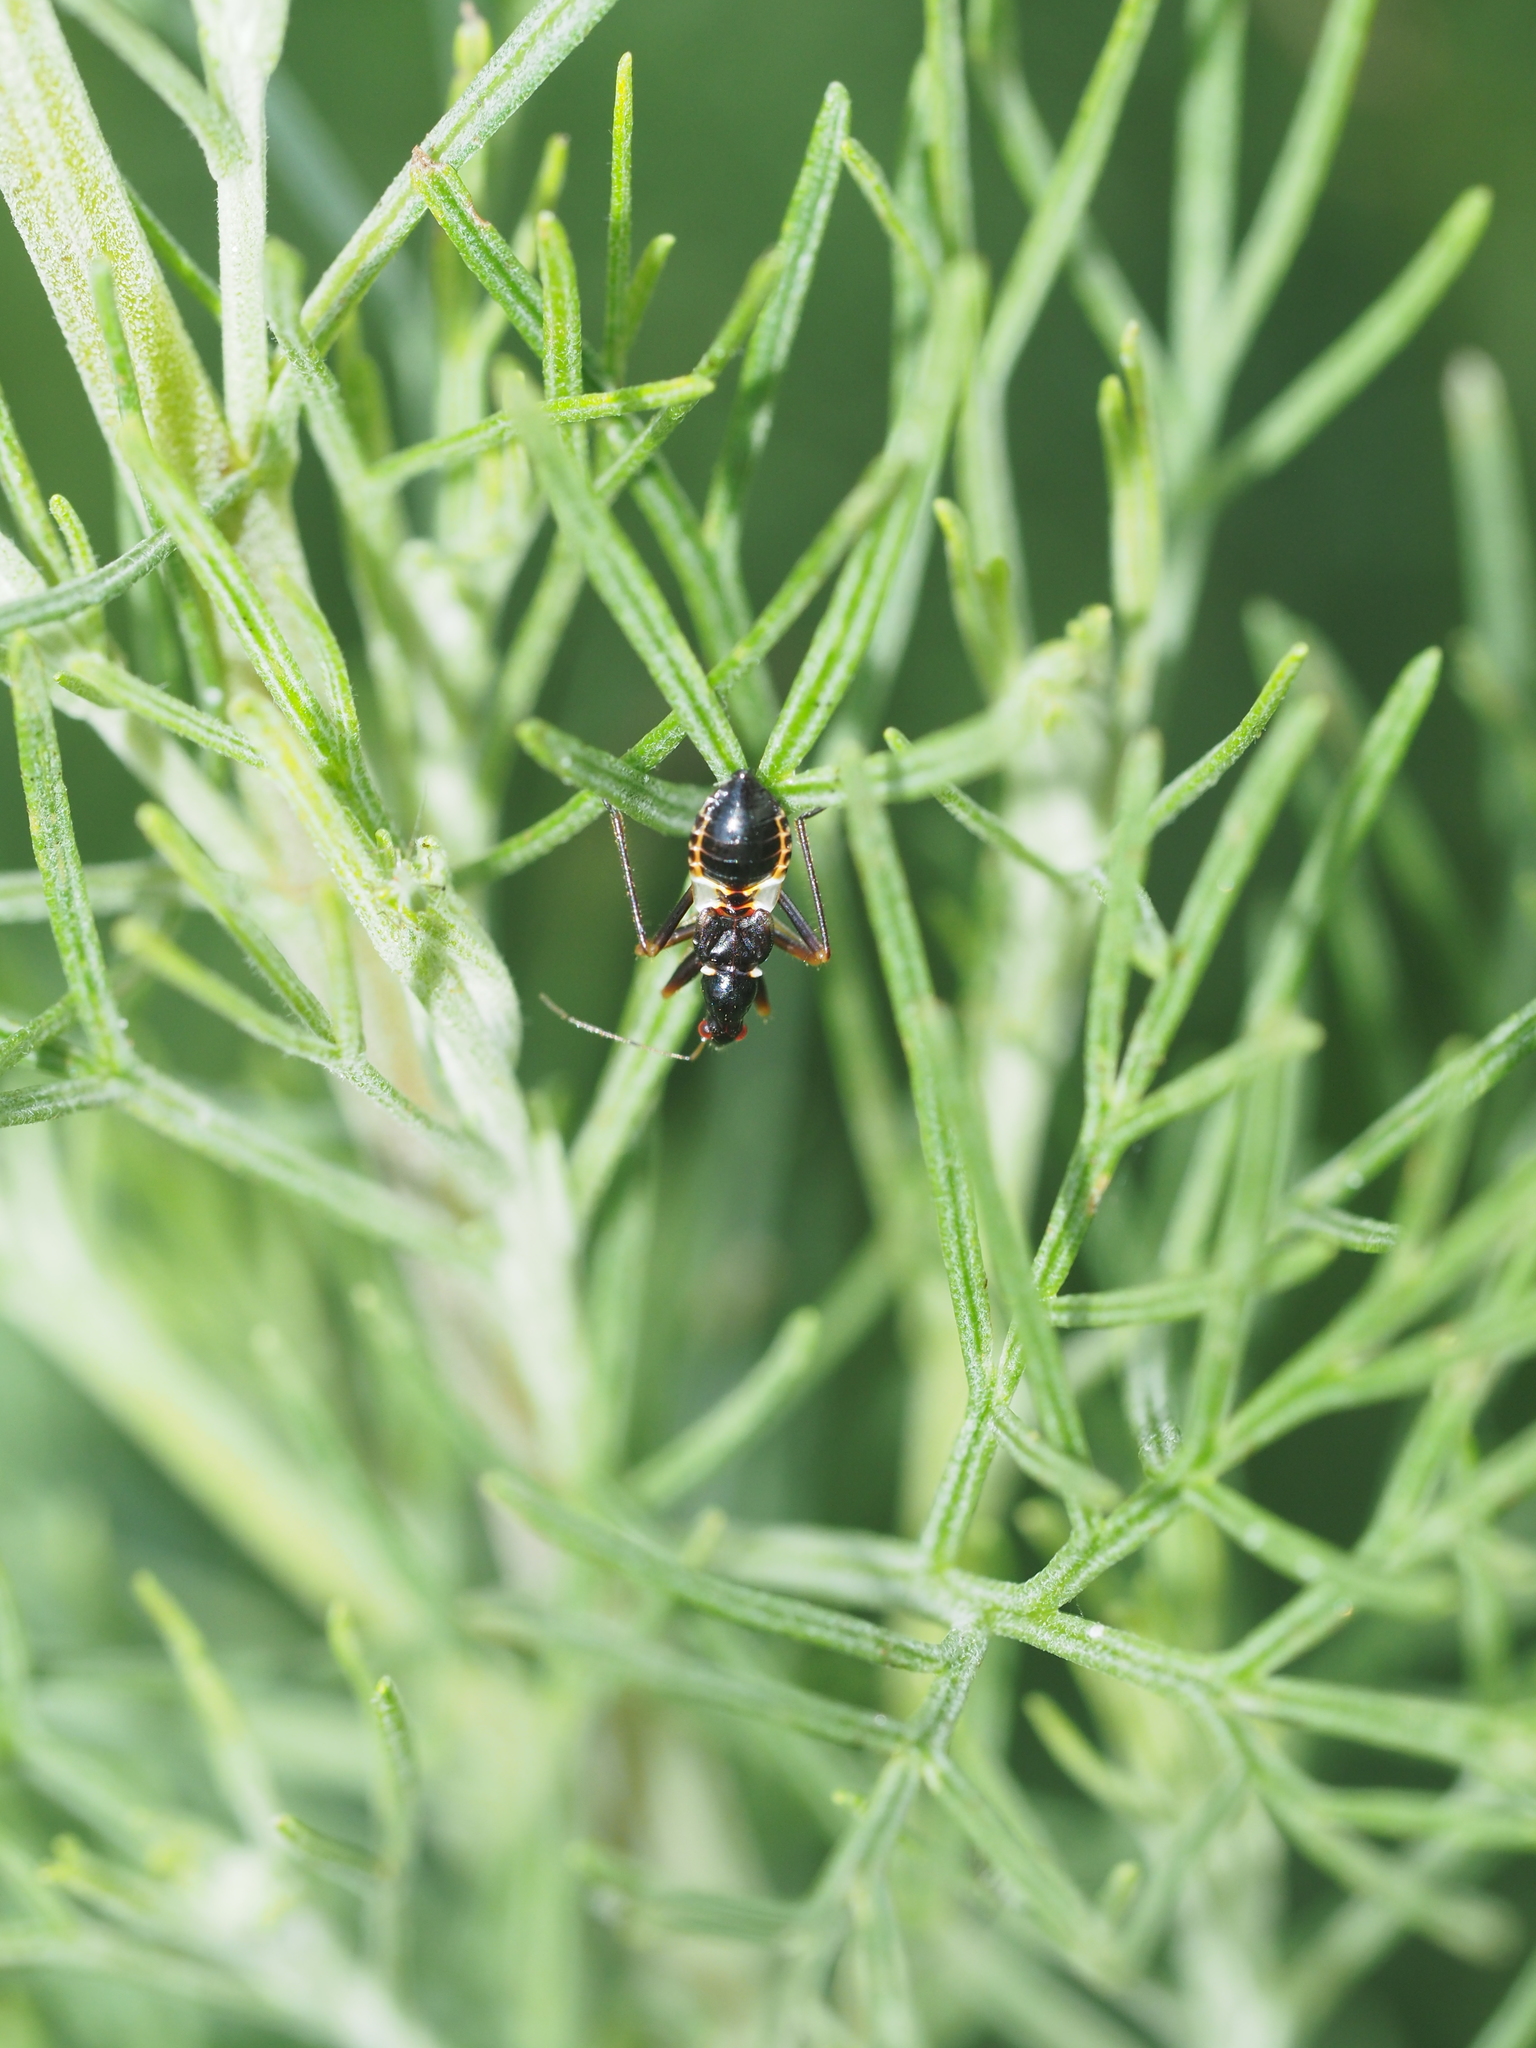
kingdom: Animalia
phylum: Arthropoda
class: Insecta
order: Hemiptera
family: Nabidae
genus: Himacerus
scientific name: Himacerus mirmicoides
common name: Ant damsel bug
